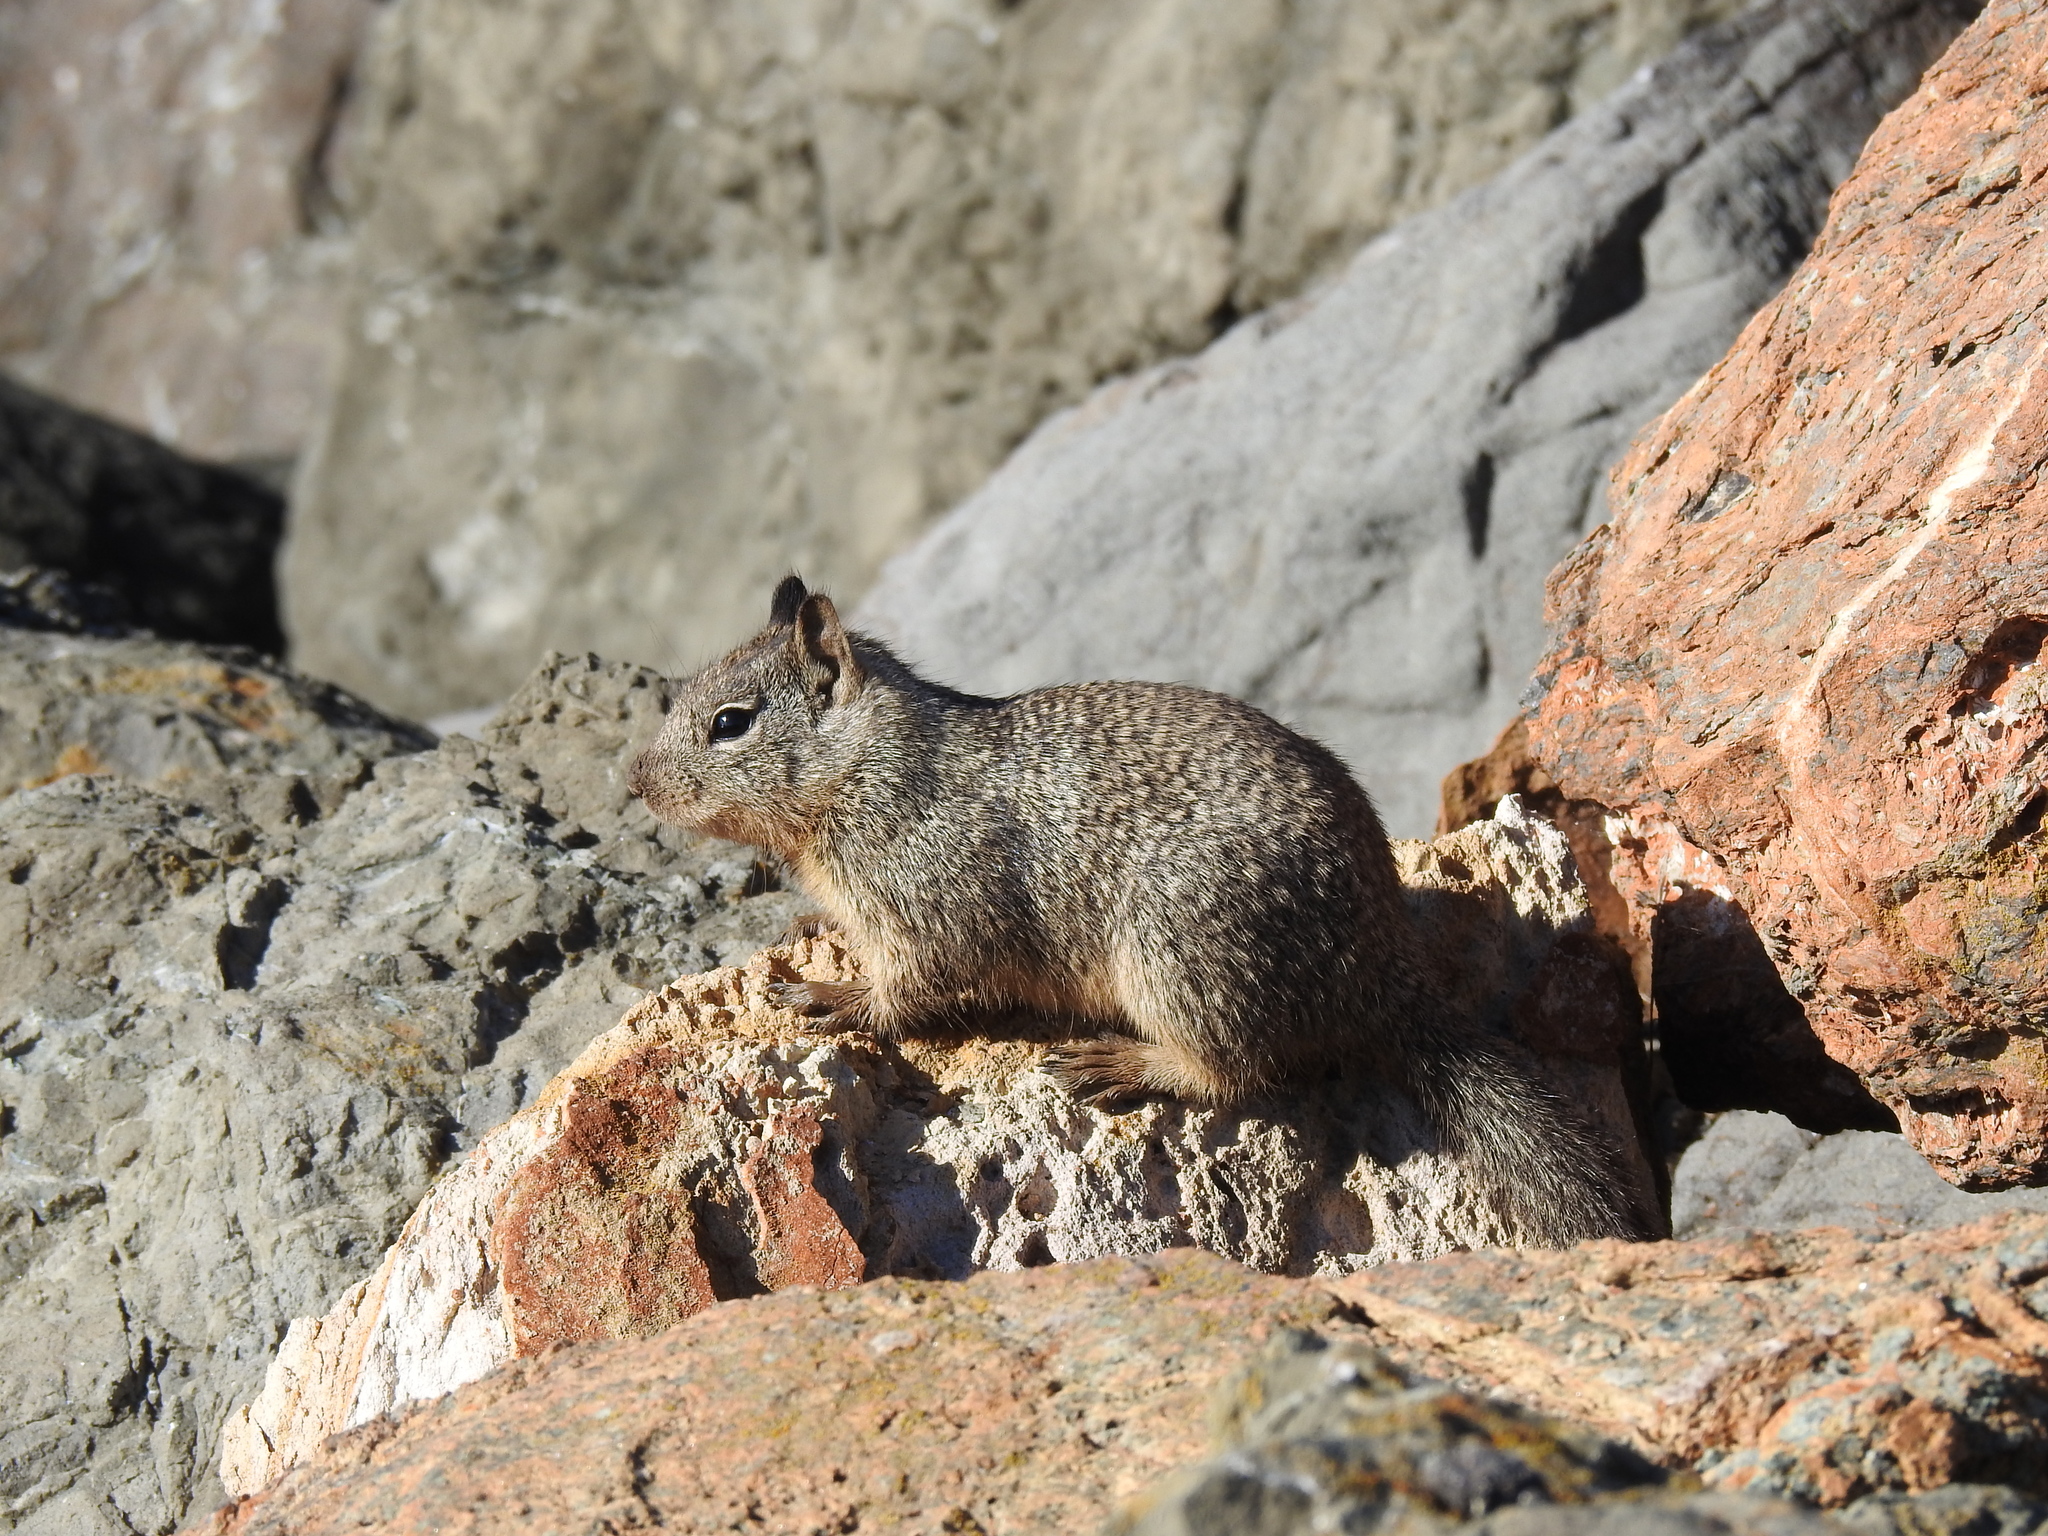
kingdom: Animalia
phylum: Chordata
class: Mammalia
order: Rodentia
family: Sciuridae
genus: Otospermophilus
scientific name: Otospermophilus beecheyi
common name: California ground squirrel
